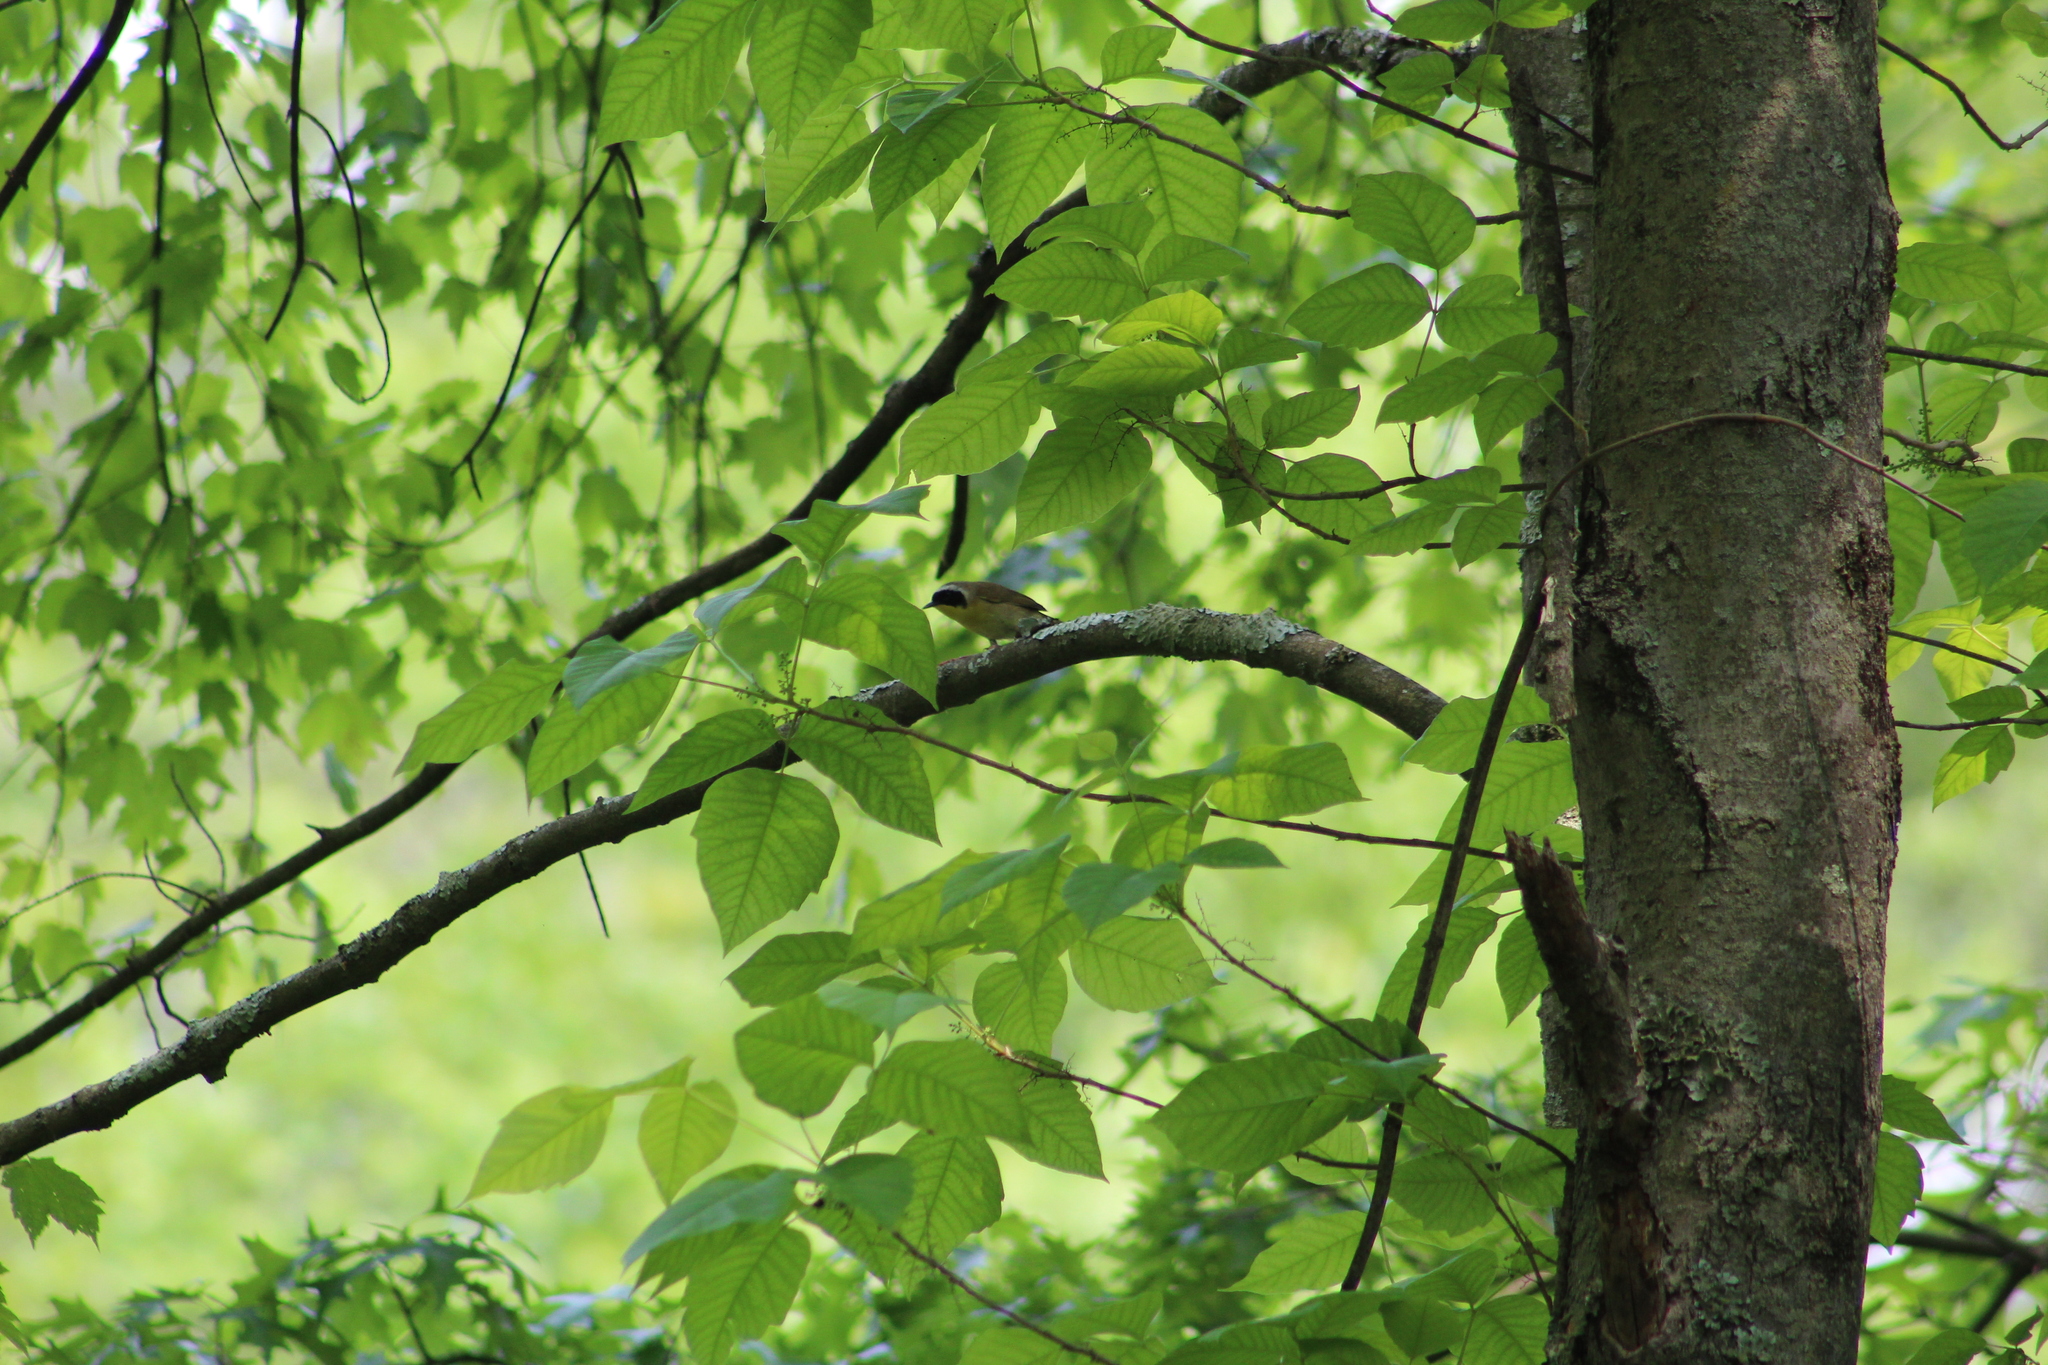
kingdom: Animalia
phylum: Chordata
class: Aves
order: Passeriformes
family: Parulidae
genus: Geothlypis
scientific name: Geothlypis trichas
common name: Common yellowthroat
